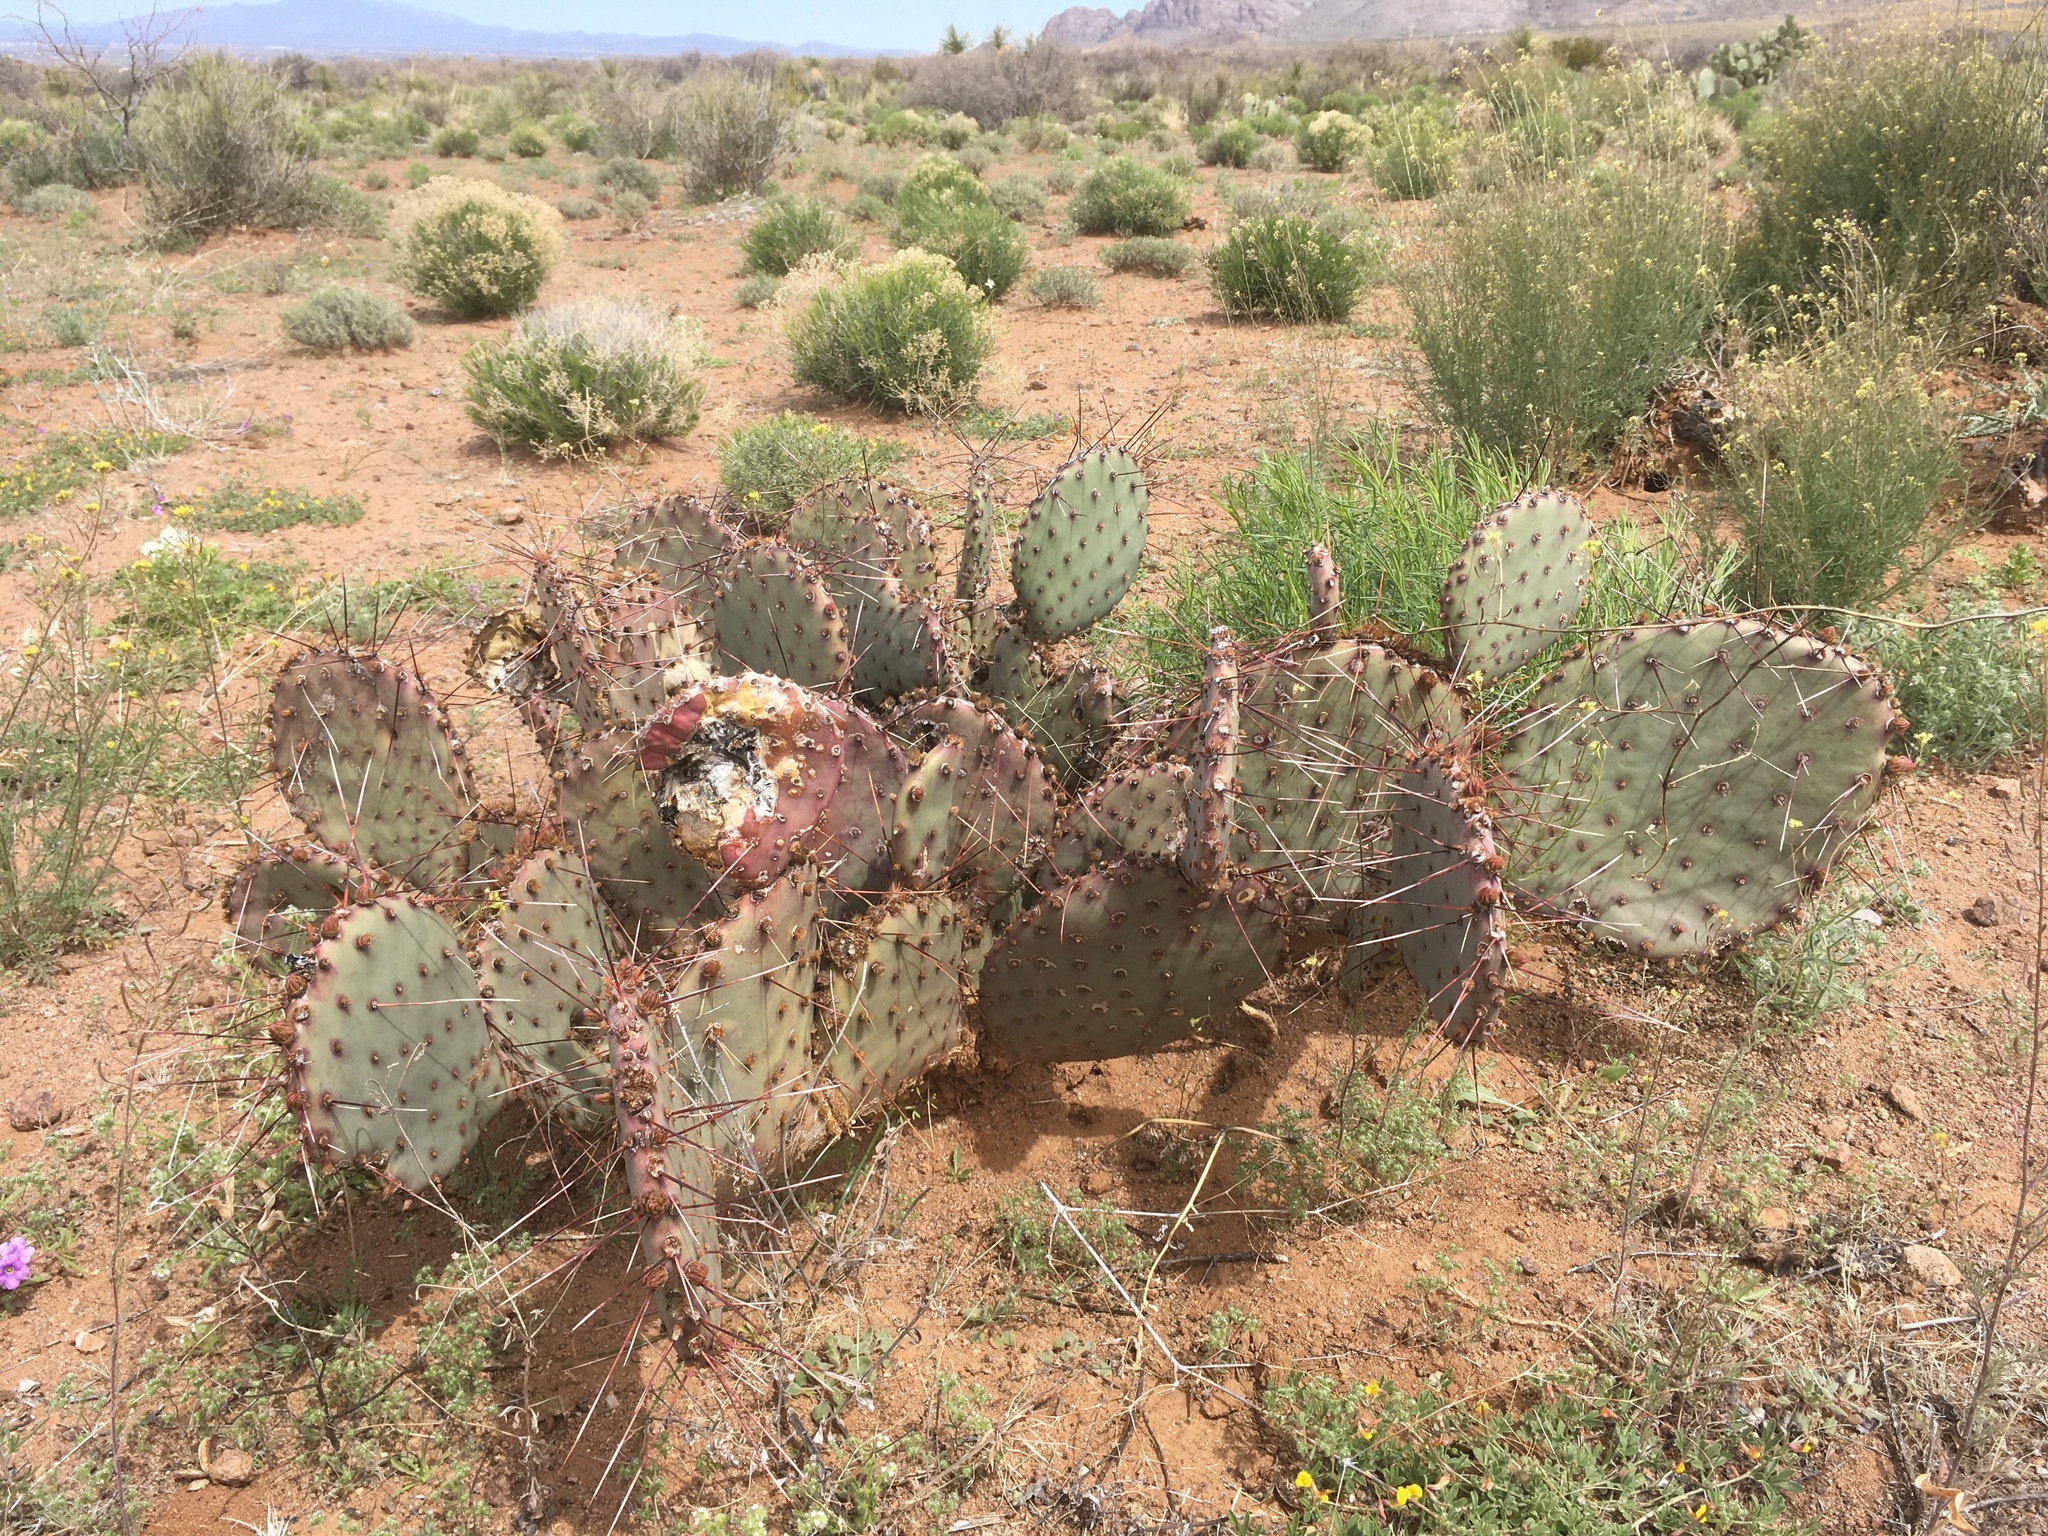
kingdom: Plantae
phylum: Tracheophyta
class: Magnoliopsida
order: Caryophyllales
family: Cactaceae
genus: Opuntia
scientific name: Opuntia macrocentra
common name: Purple prickly-pear
